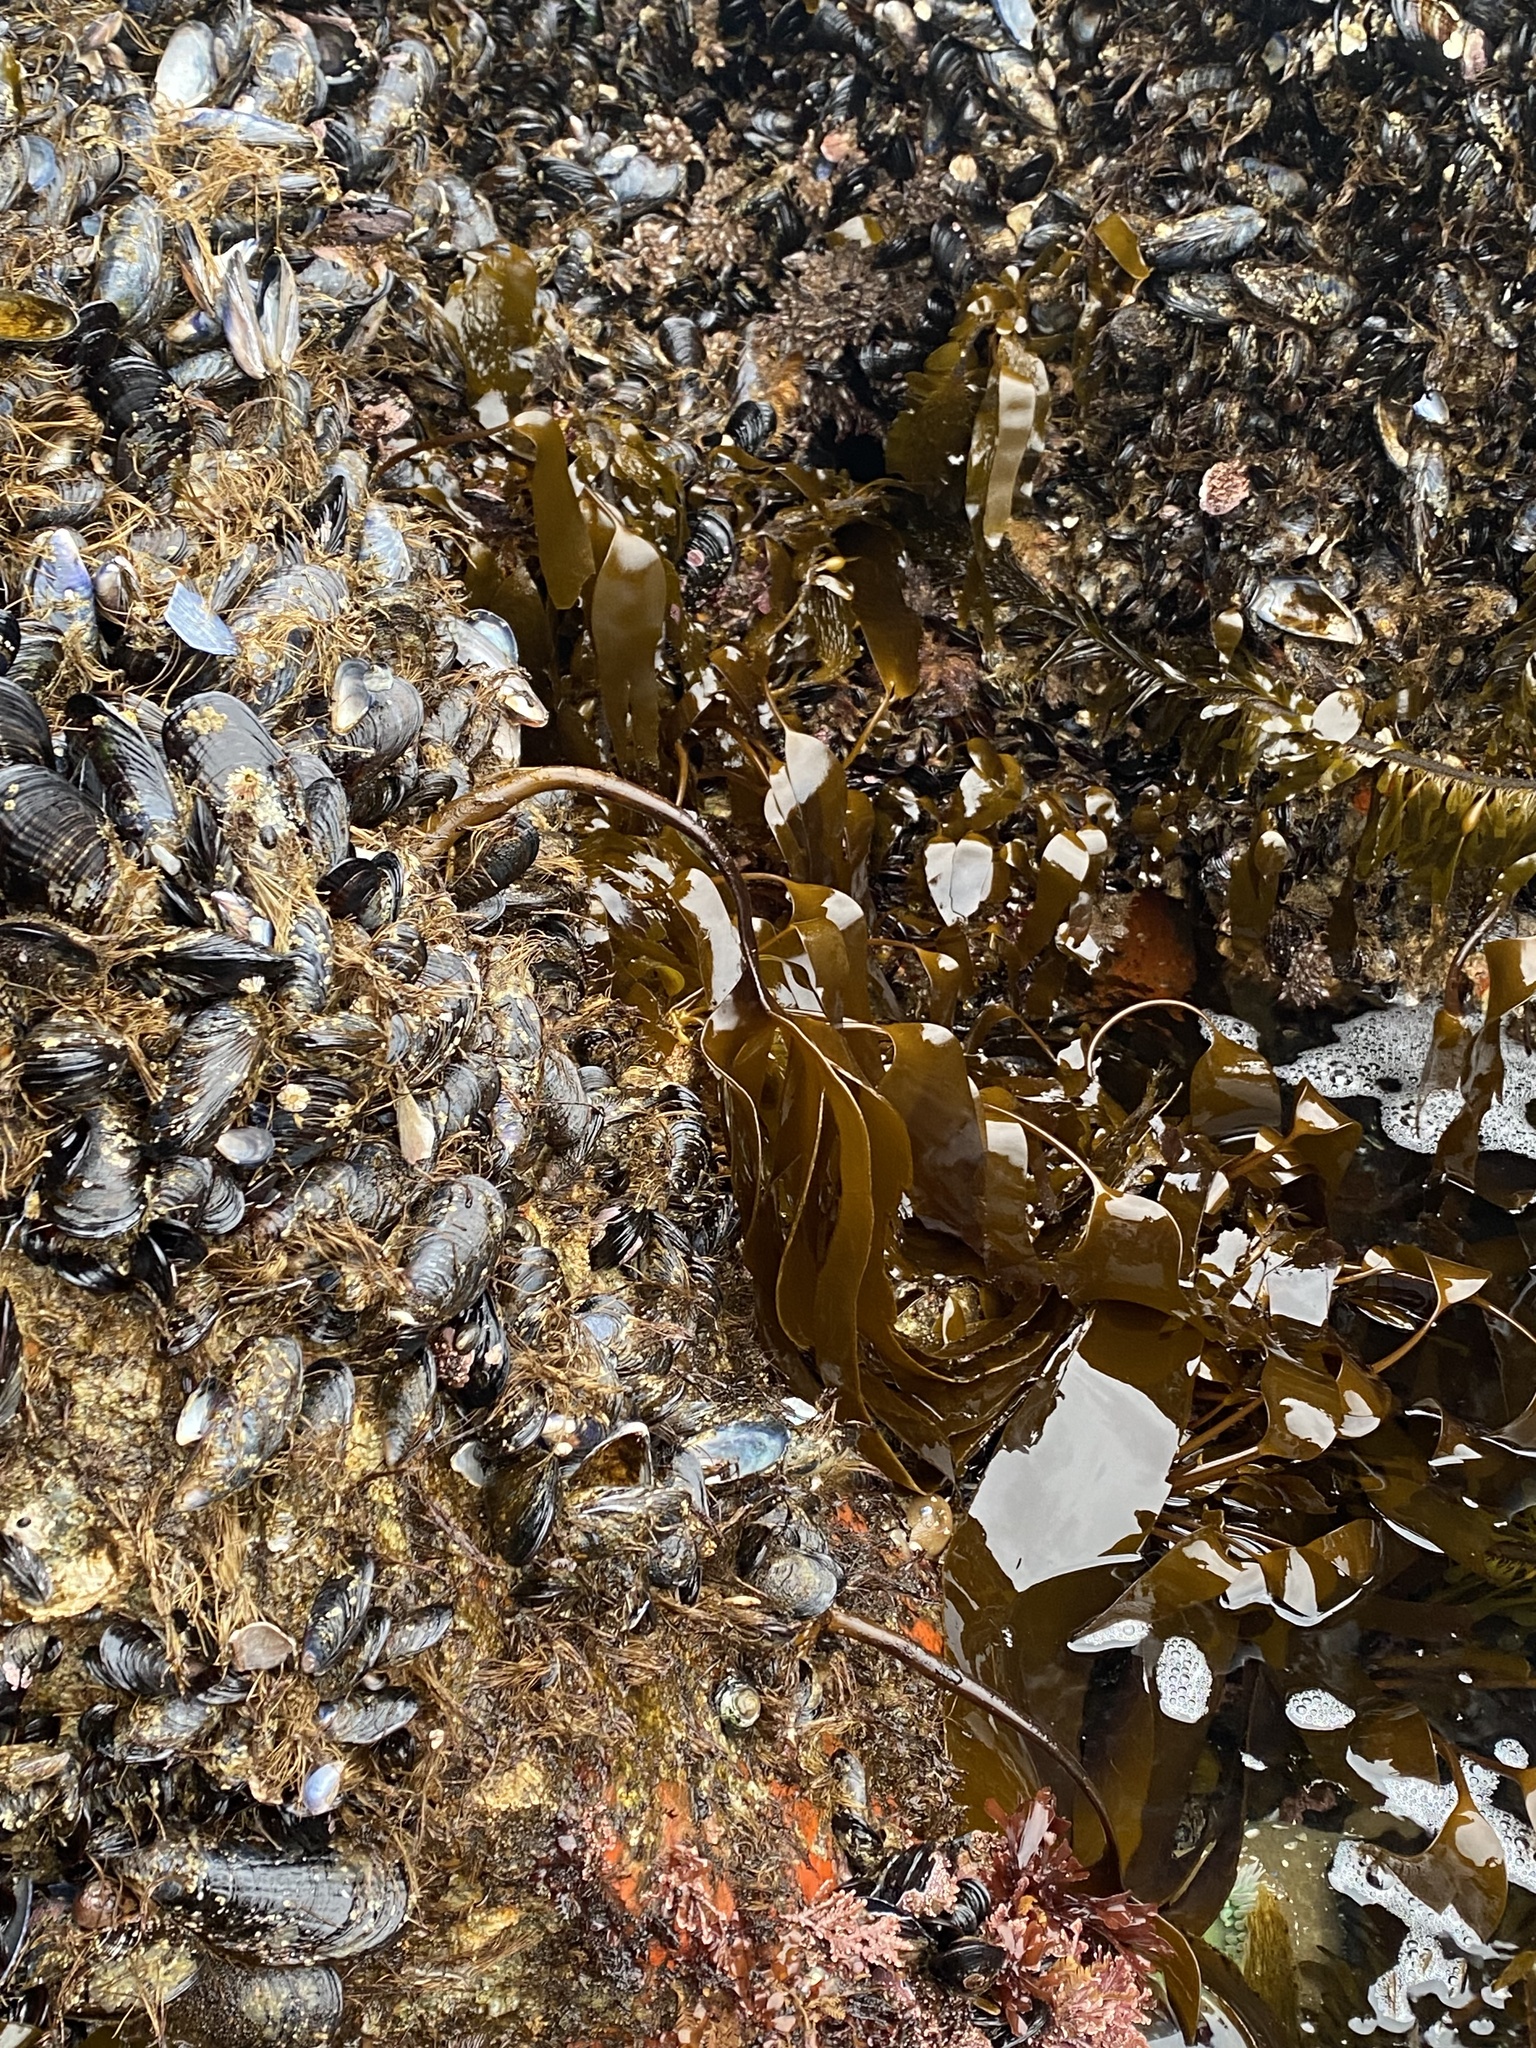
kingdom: Chromista
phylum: Ochrophyta
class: Phaeophyceae
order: Laminariales
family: Laminariaceae
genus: Laminaria
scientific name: Laminaria setchellii
